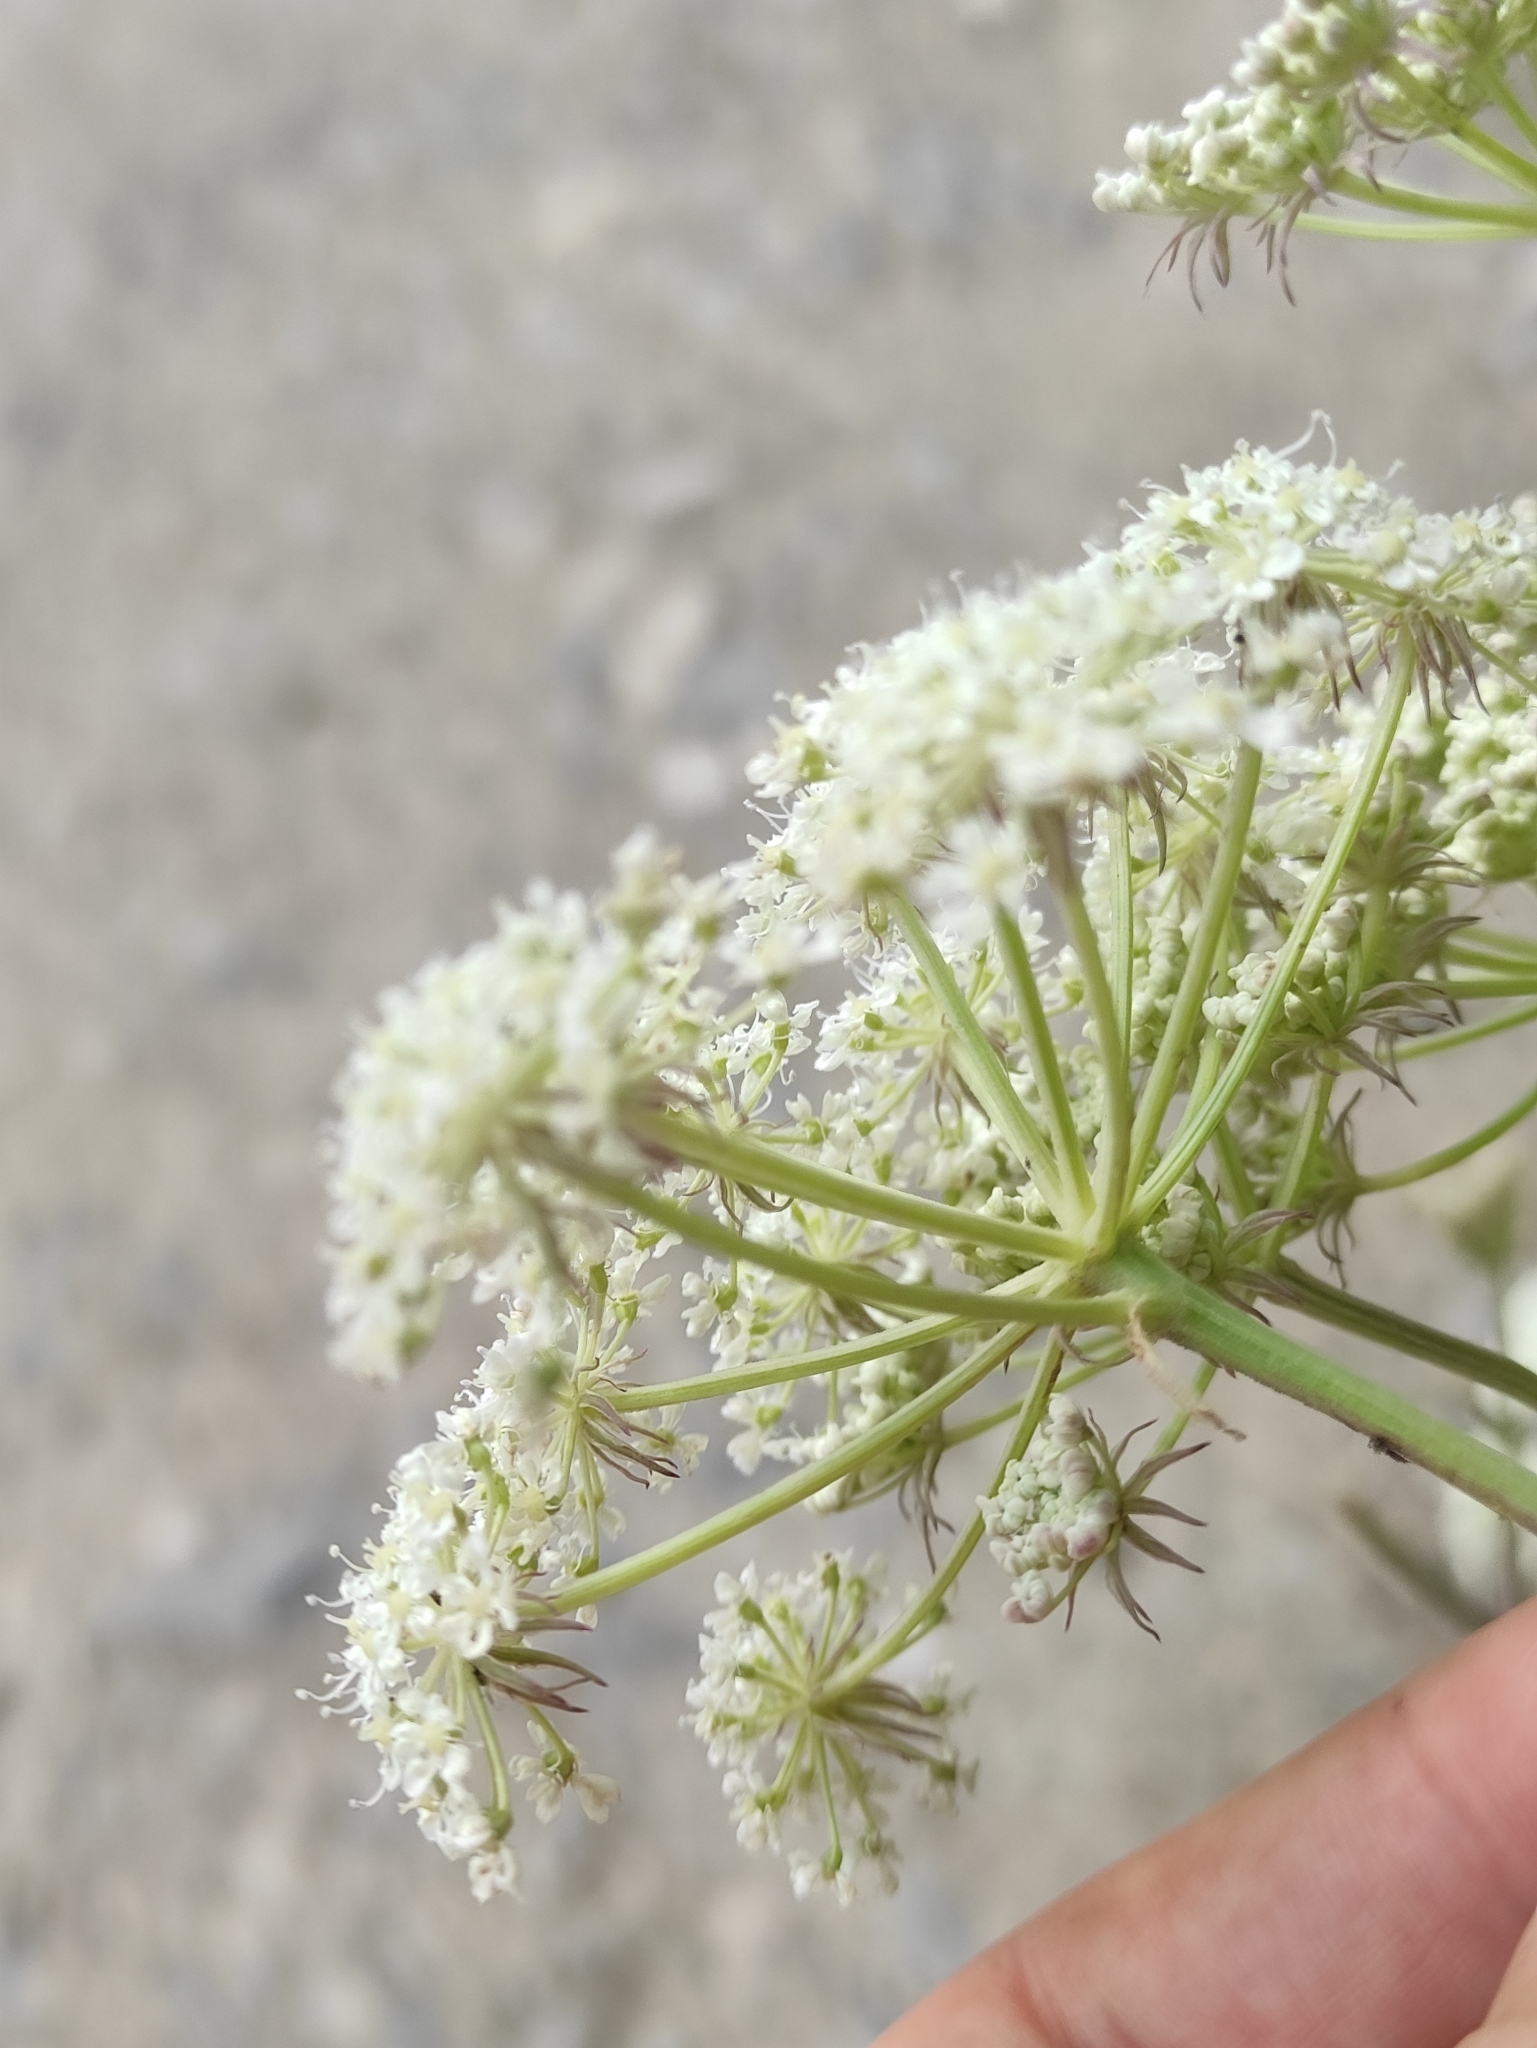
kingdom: Plantae
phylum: Tracheophyta
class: Magnoliopsida
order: Apiales
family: Apiaceae
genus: Kitagawia
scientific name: Kitagawia baicalensis
